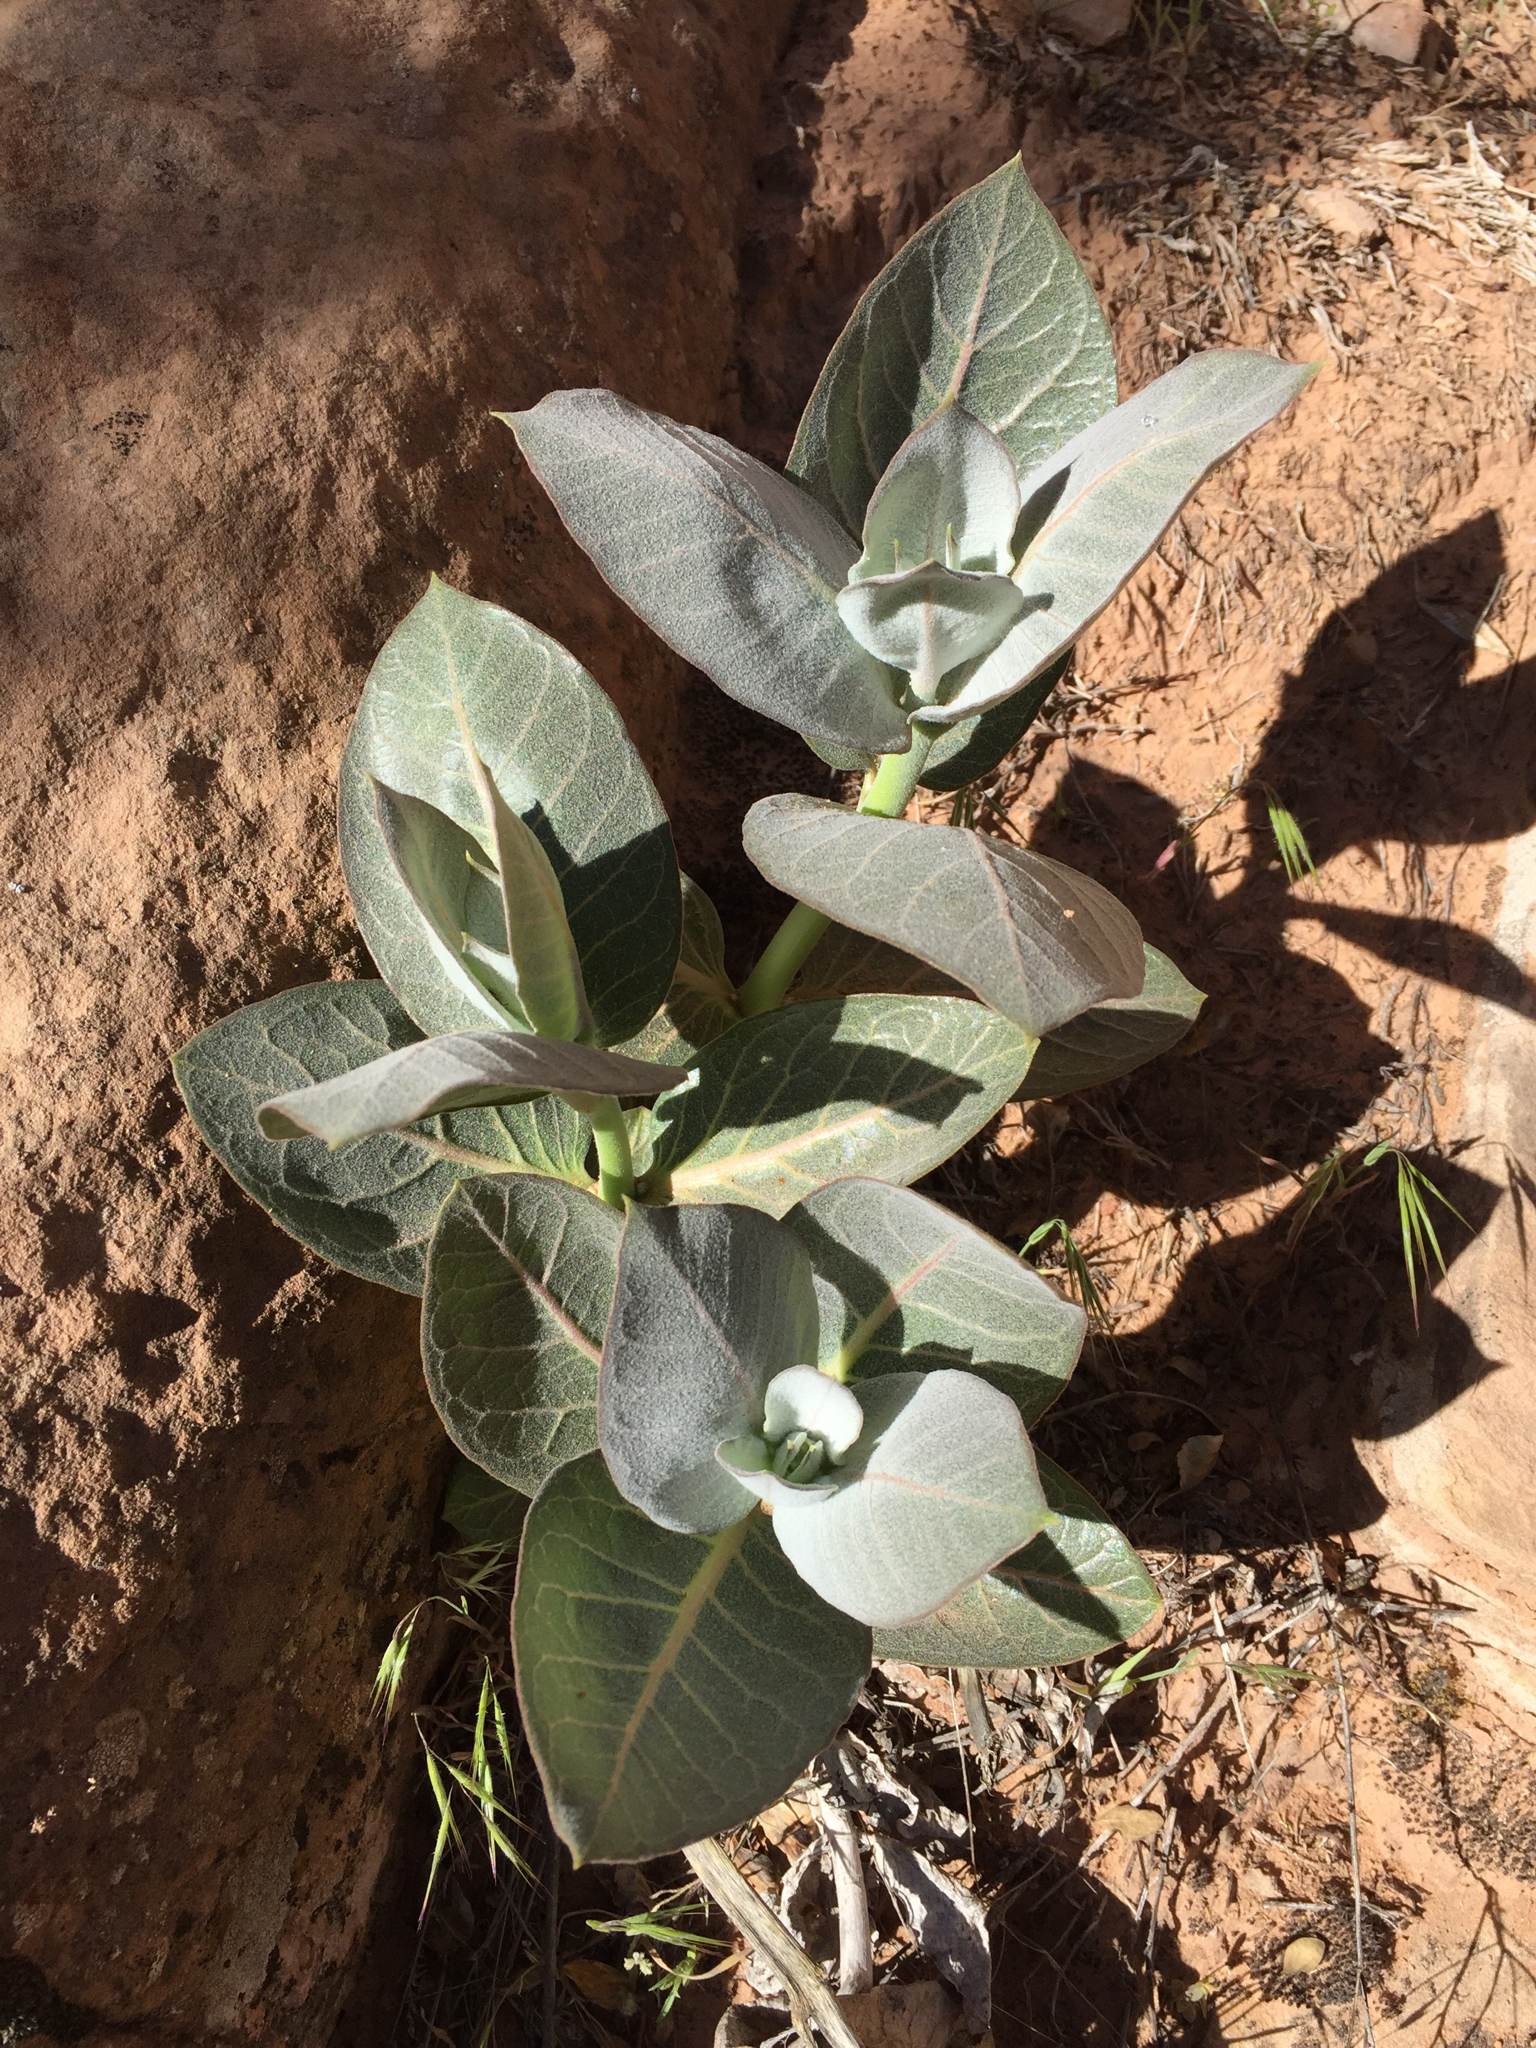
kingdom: Plantae
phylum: Tracheophyta
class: Magnoliopsida
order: Gentianales
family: Apocynaceae
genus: Asclepias
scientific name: Asclepias latifolia
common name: Broadleaf milkweed
